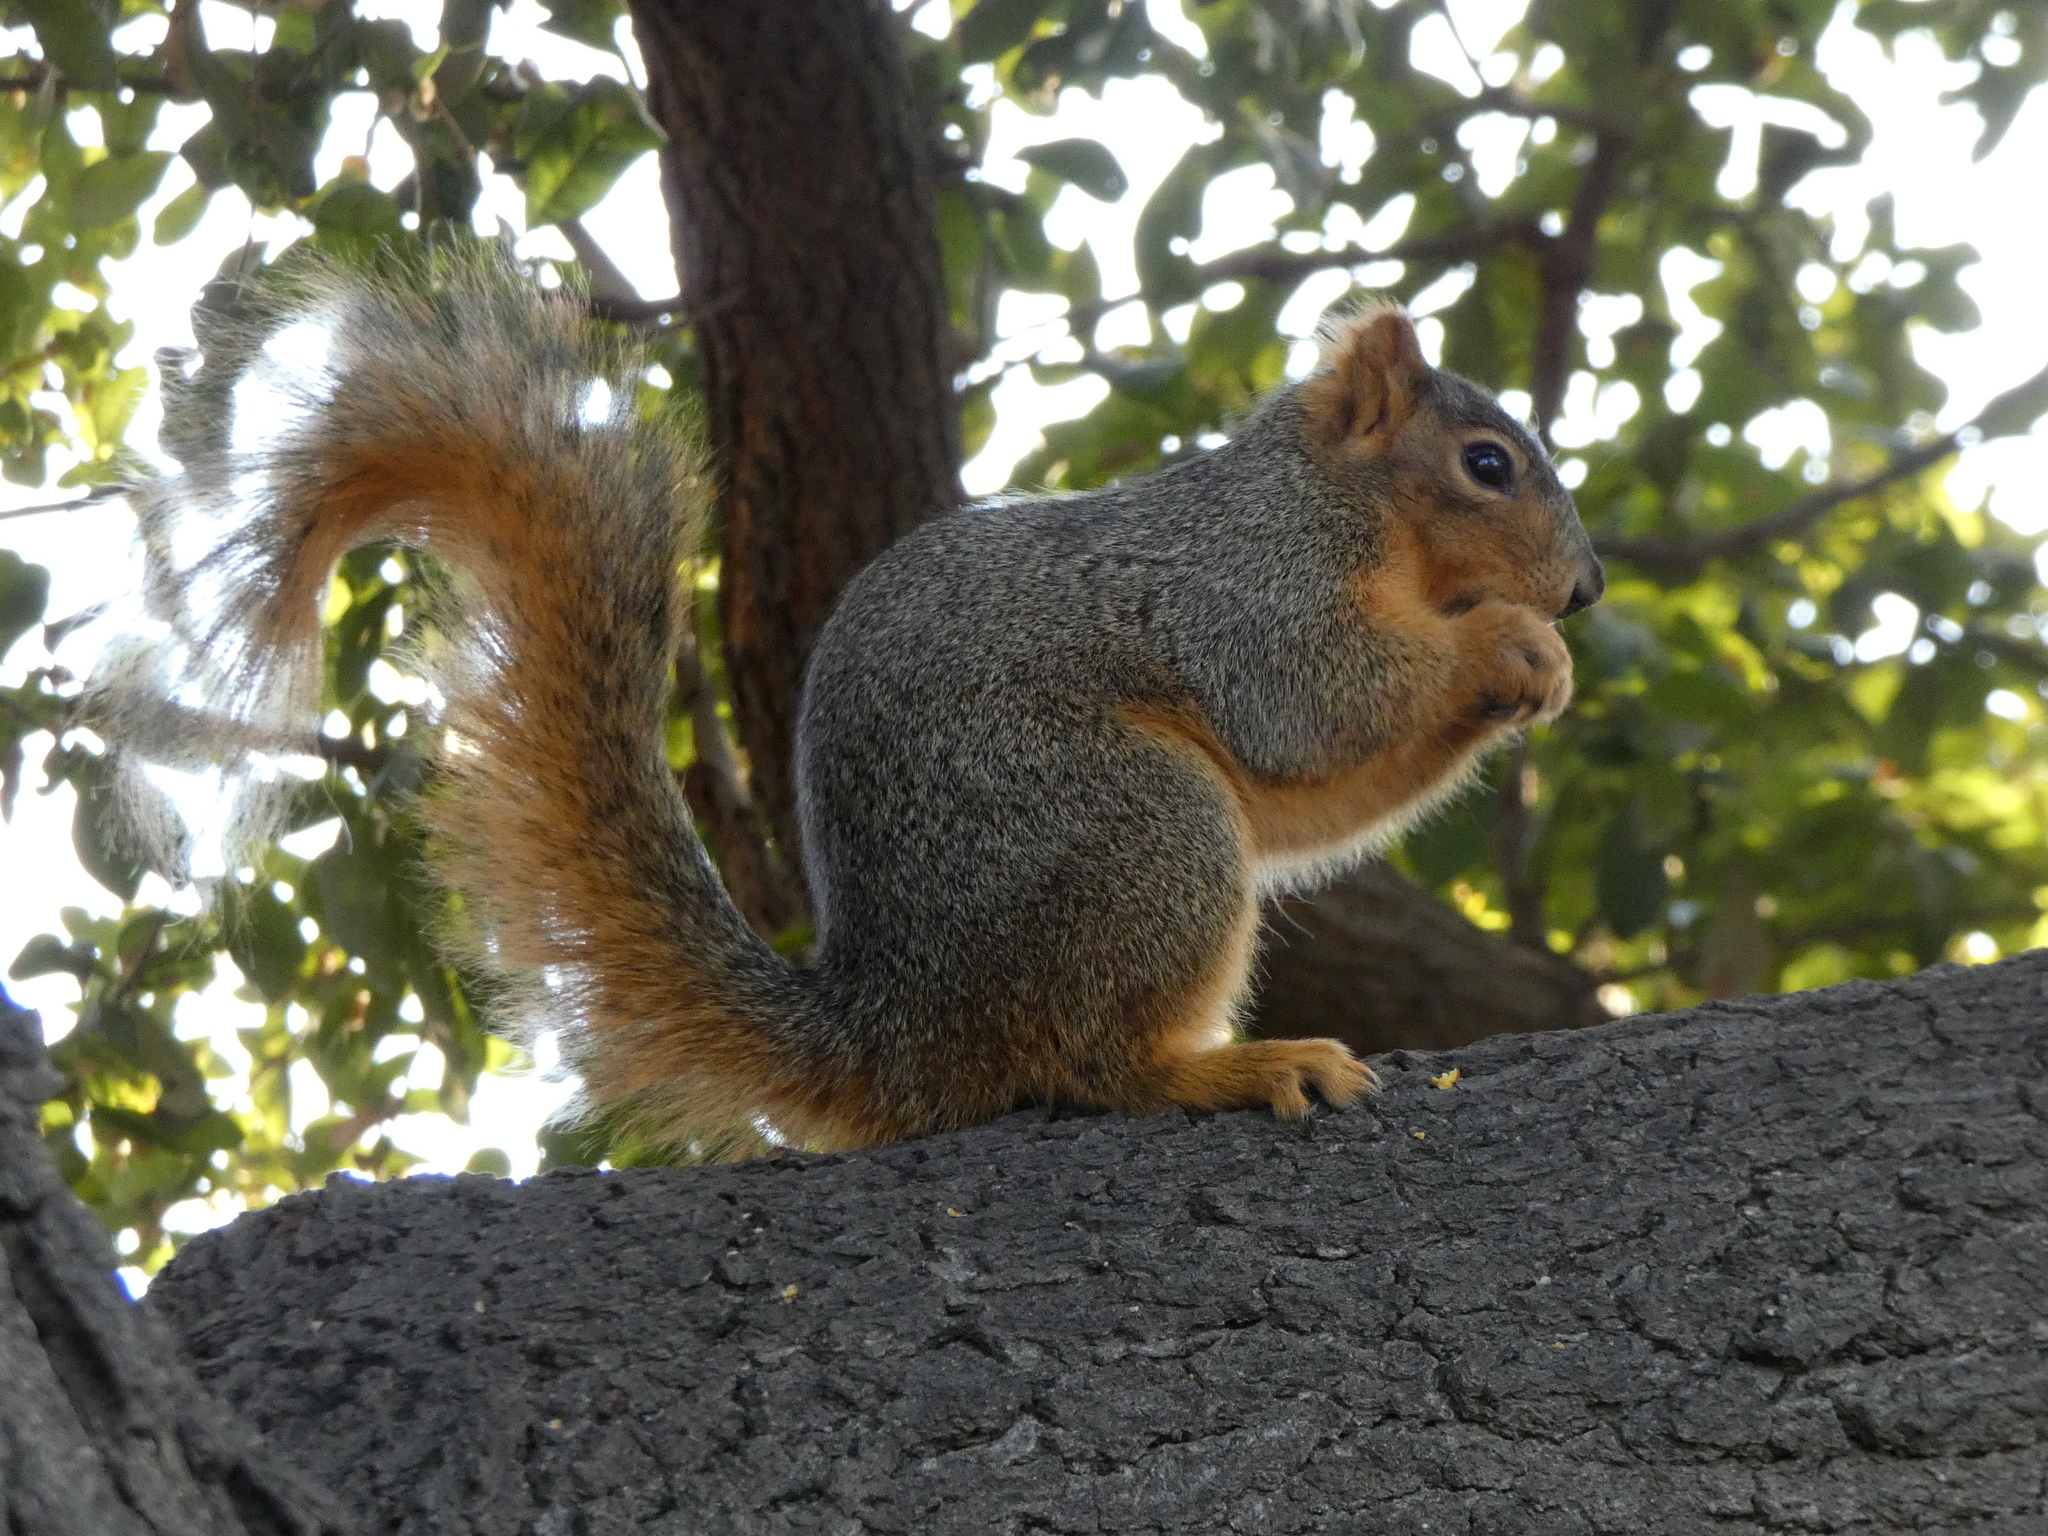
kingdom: Animalia
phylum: Chordata
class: Mammalia
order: Rodentia
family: Sciuridae
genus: Sciurus
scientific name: Sciurus niger
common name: Fox squirrel
